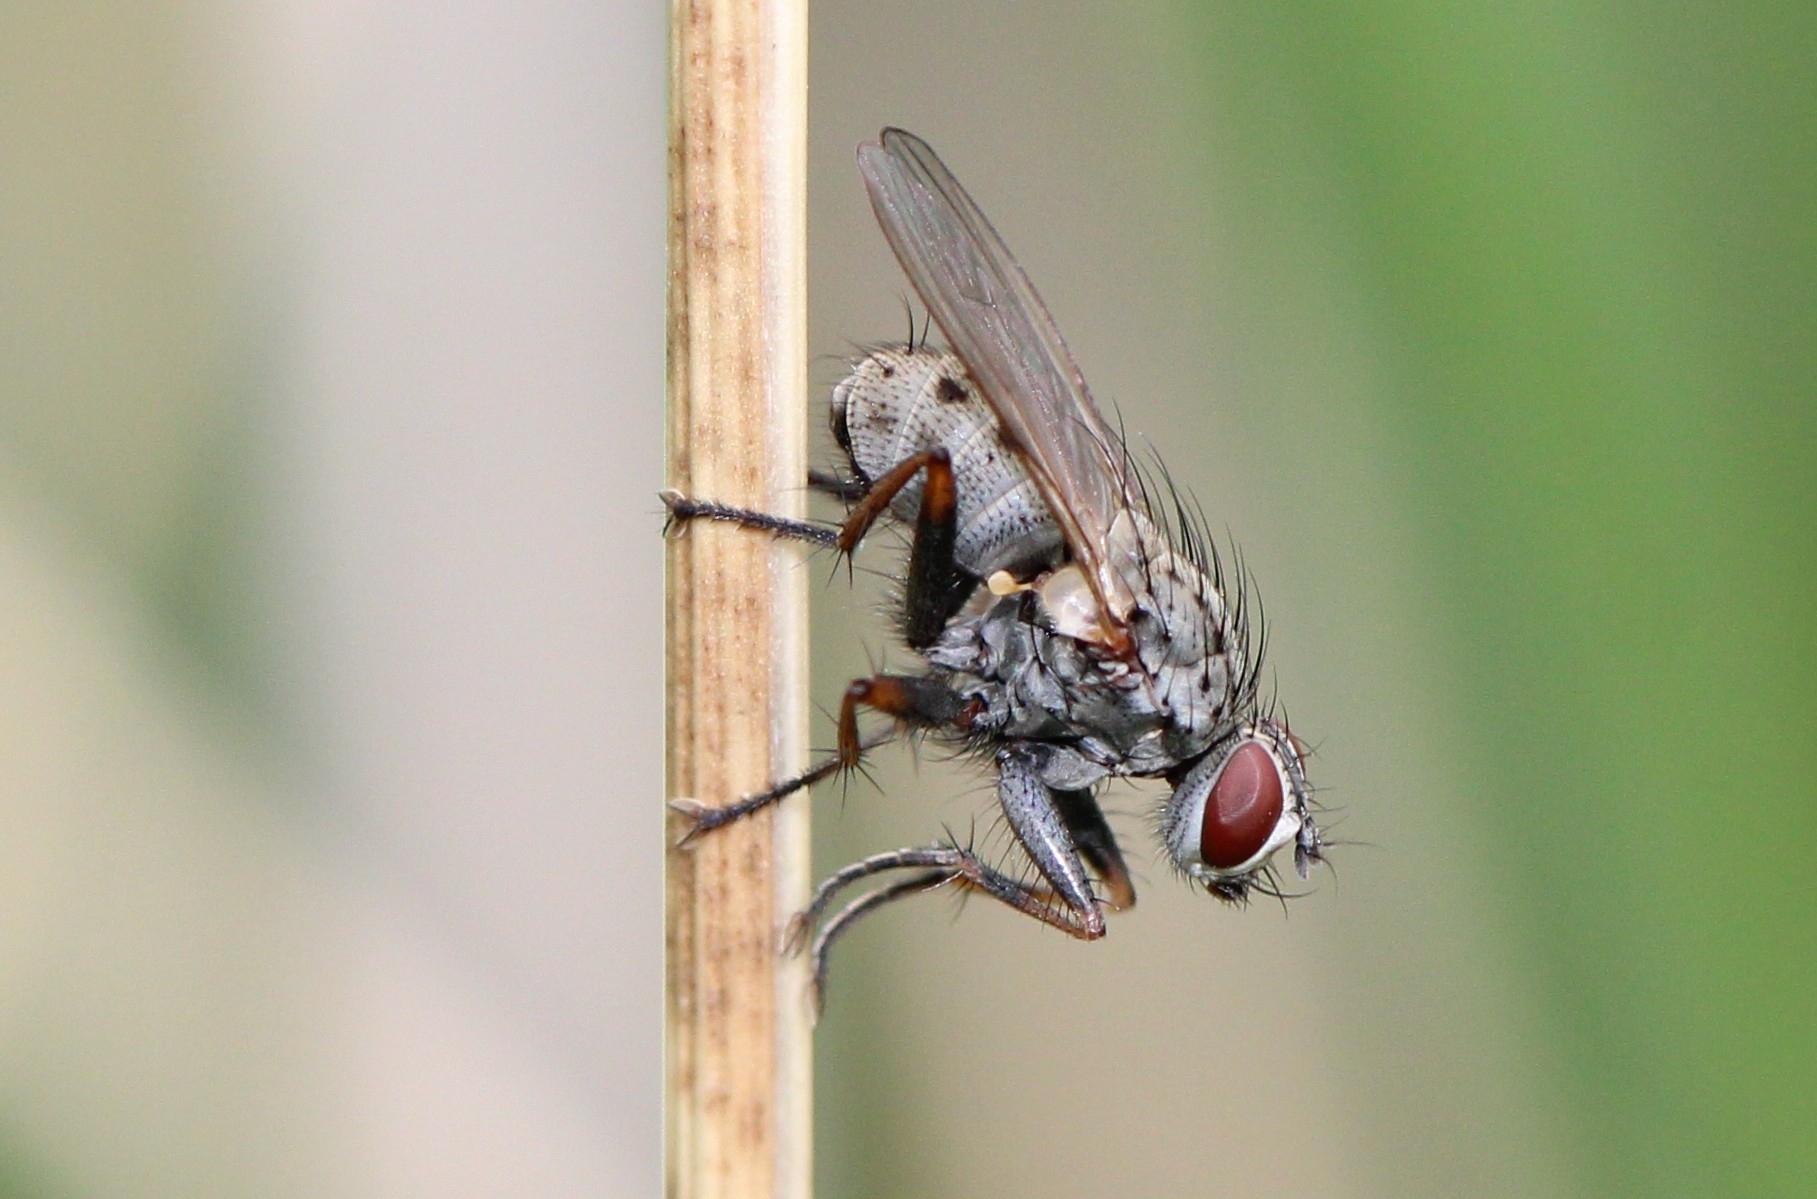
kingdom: Animalia
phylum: Arthropoda
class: Insecta
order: Diptera
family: Muscidae
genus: Coenosia
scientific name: Coenosia tigrina
